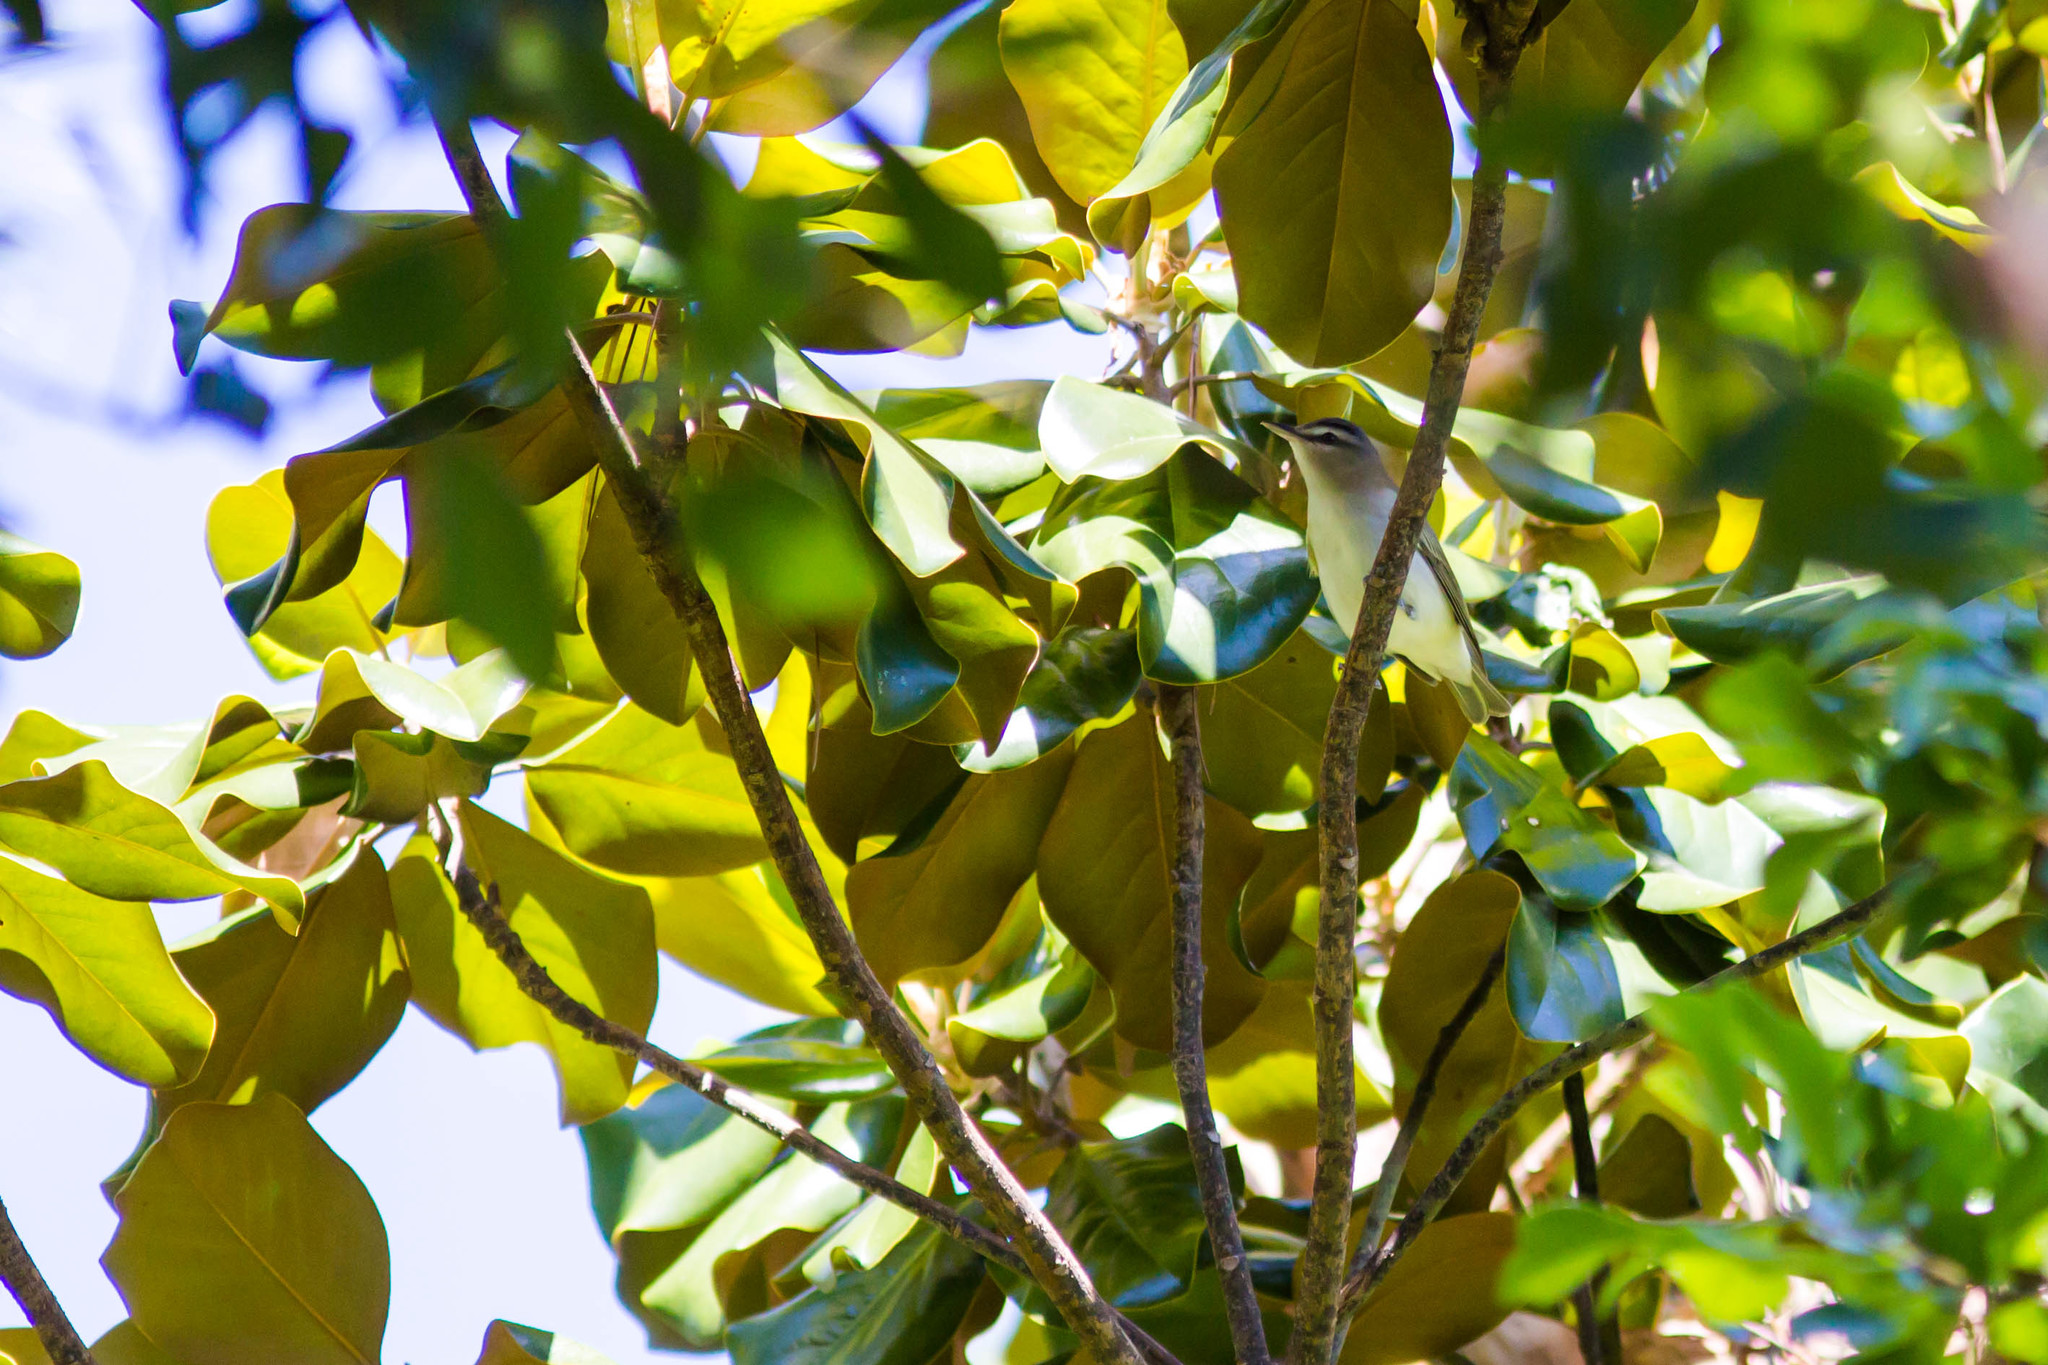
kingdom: Animalia
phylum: Chordata
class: Aves
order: Passeriformes
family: Vireonidae
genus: Vireo
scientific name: Vireo olivaceus
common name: Red-eyed vireo
